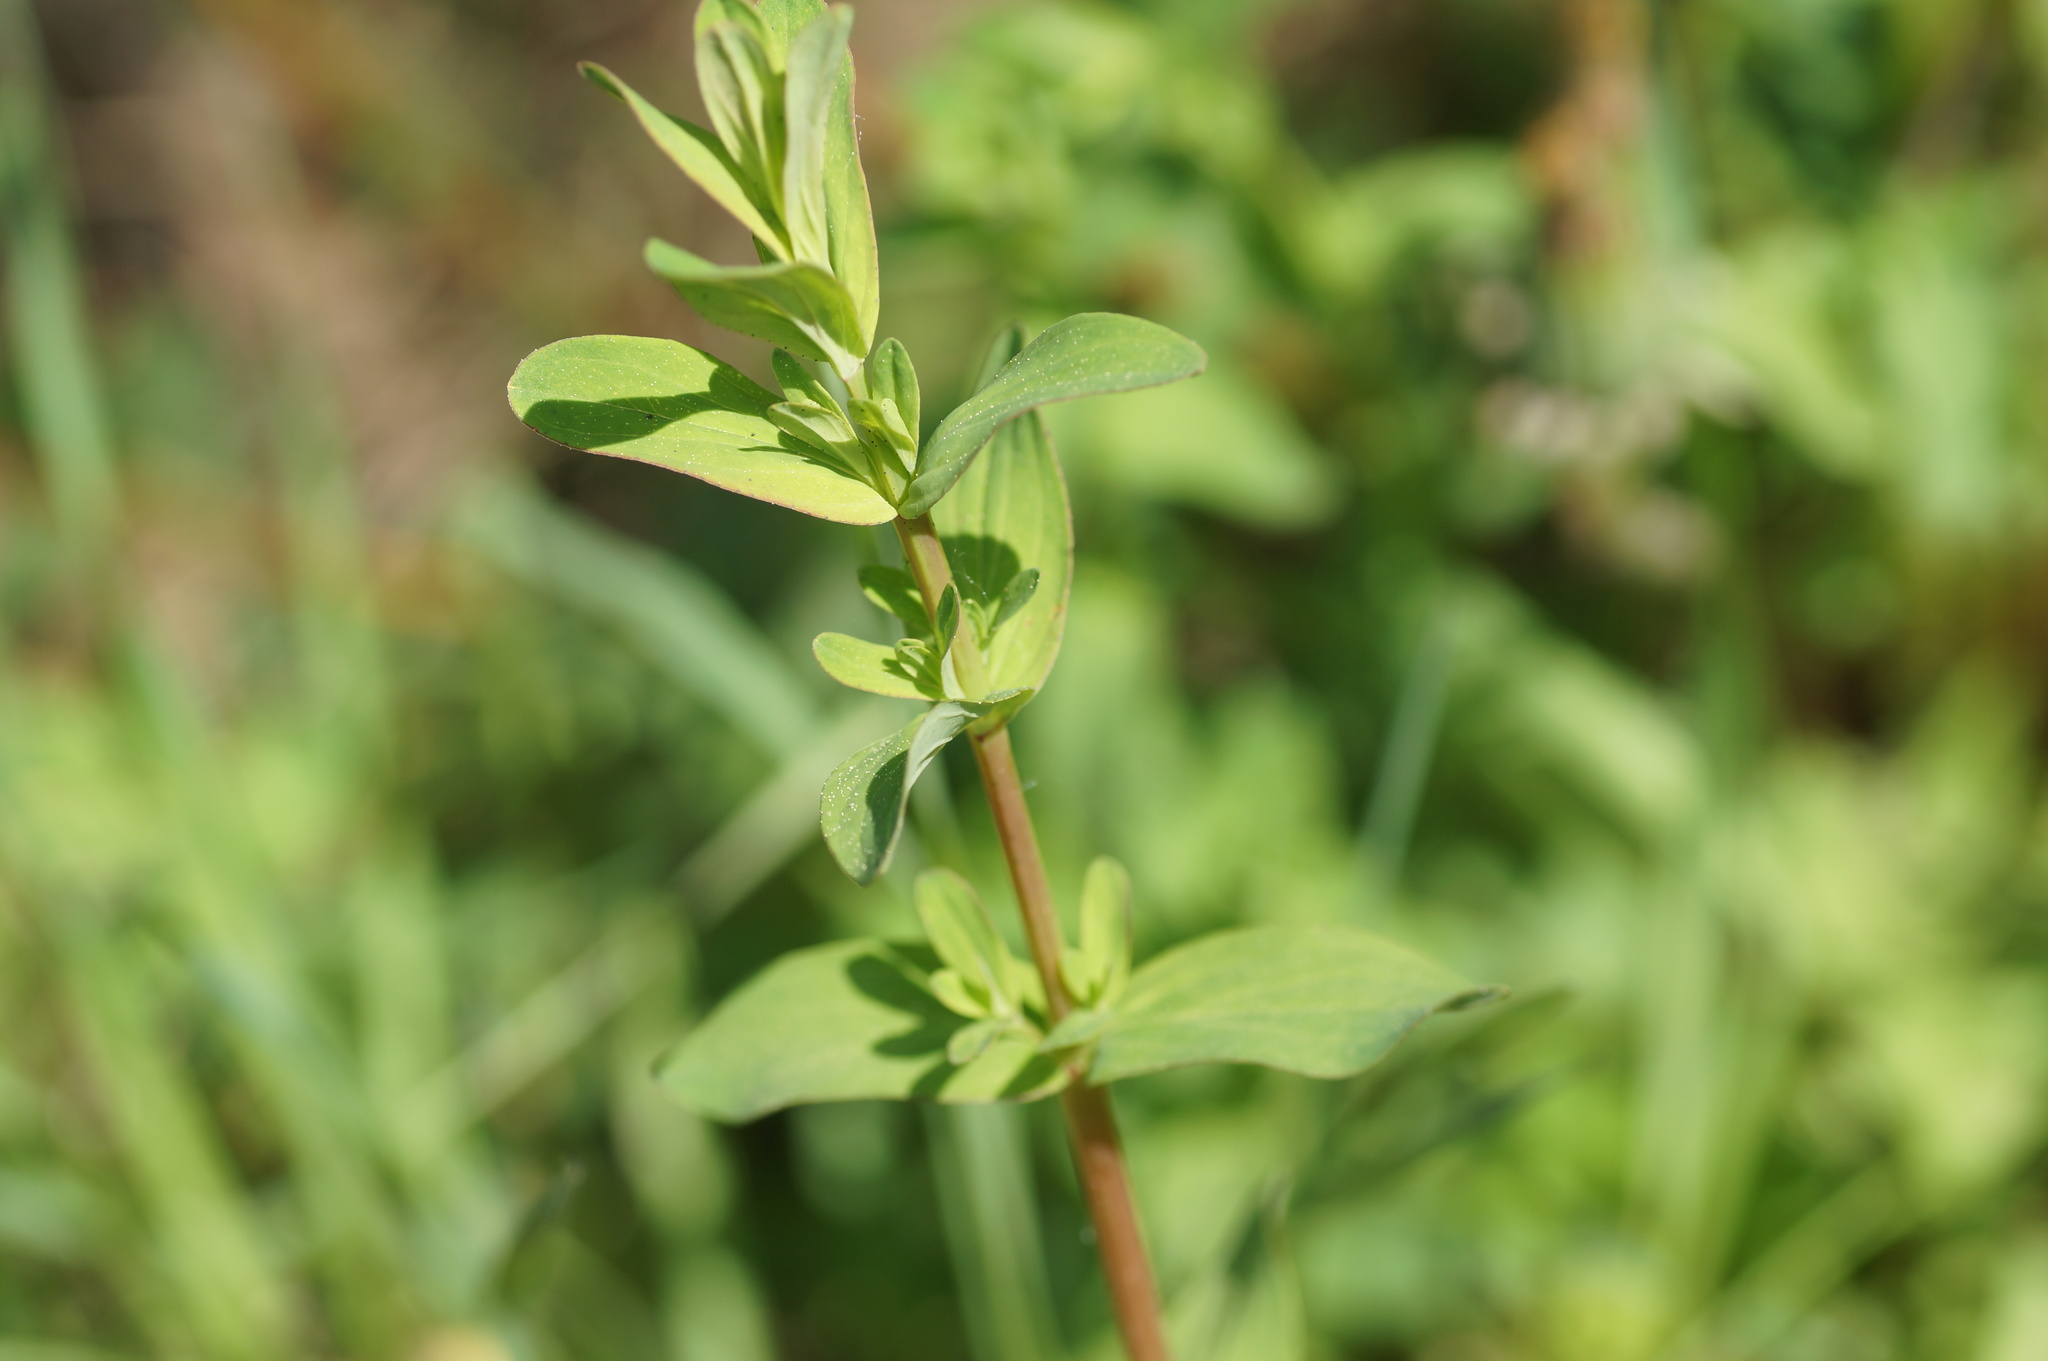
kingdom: Plantae
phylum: Tracheophyta
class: Magnoliopsida
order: Malpighiales
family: Hypericaceae
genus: Hypericum
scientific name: Hypericum perforatum
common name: Common st. johnswort
